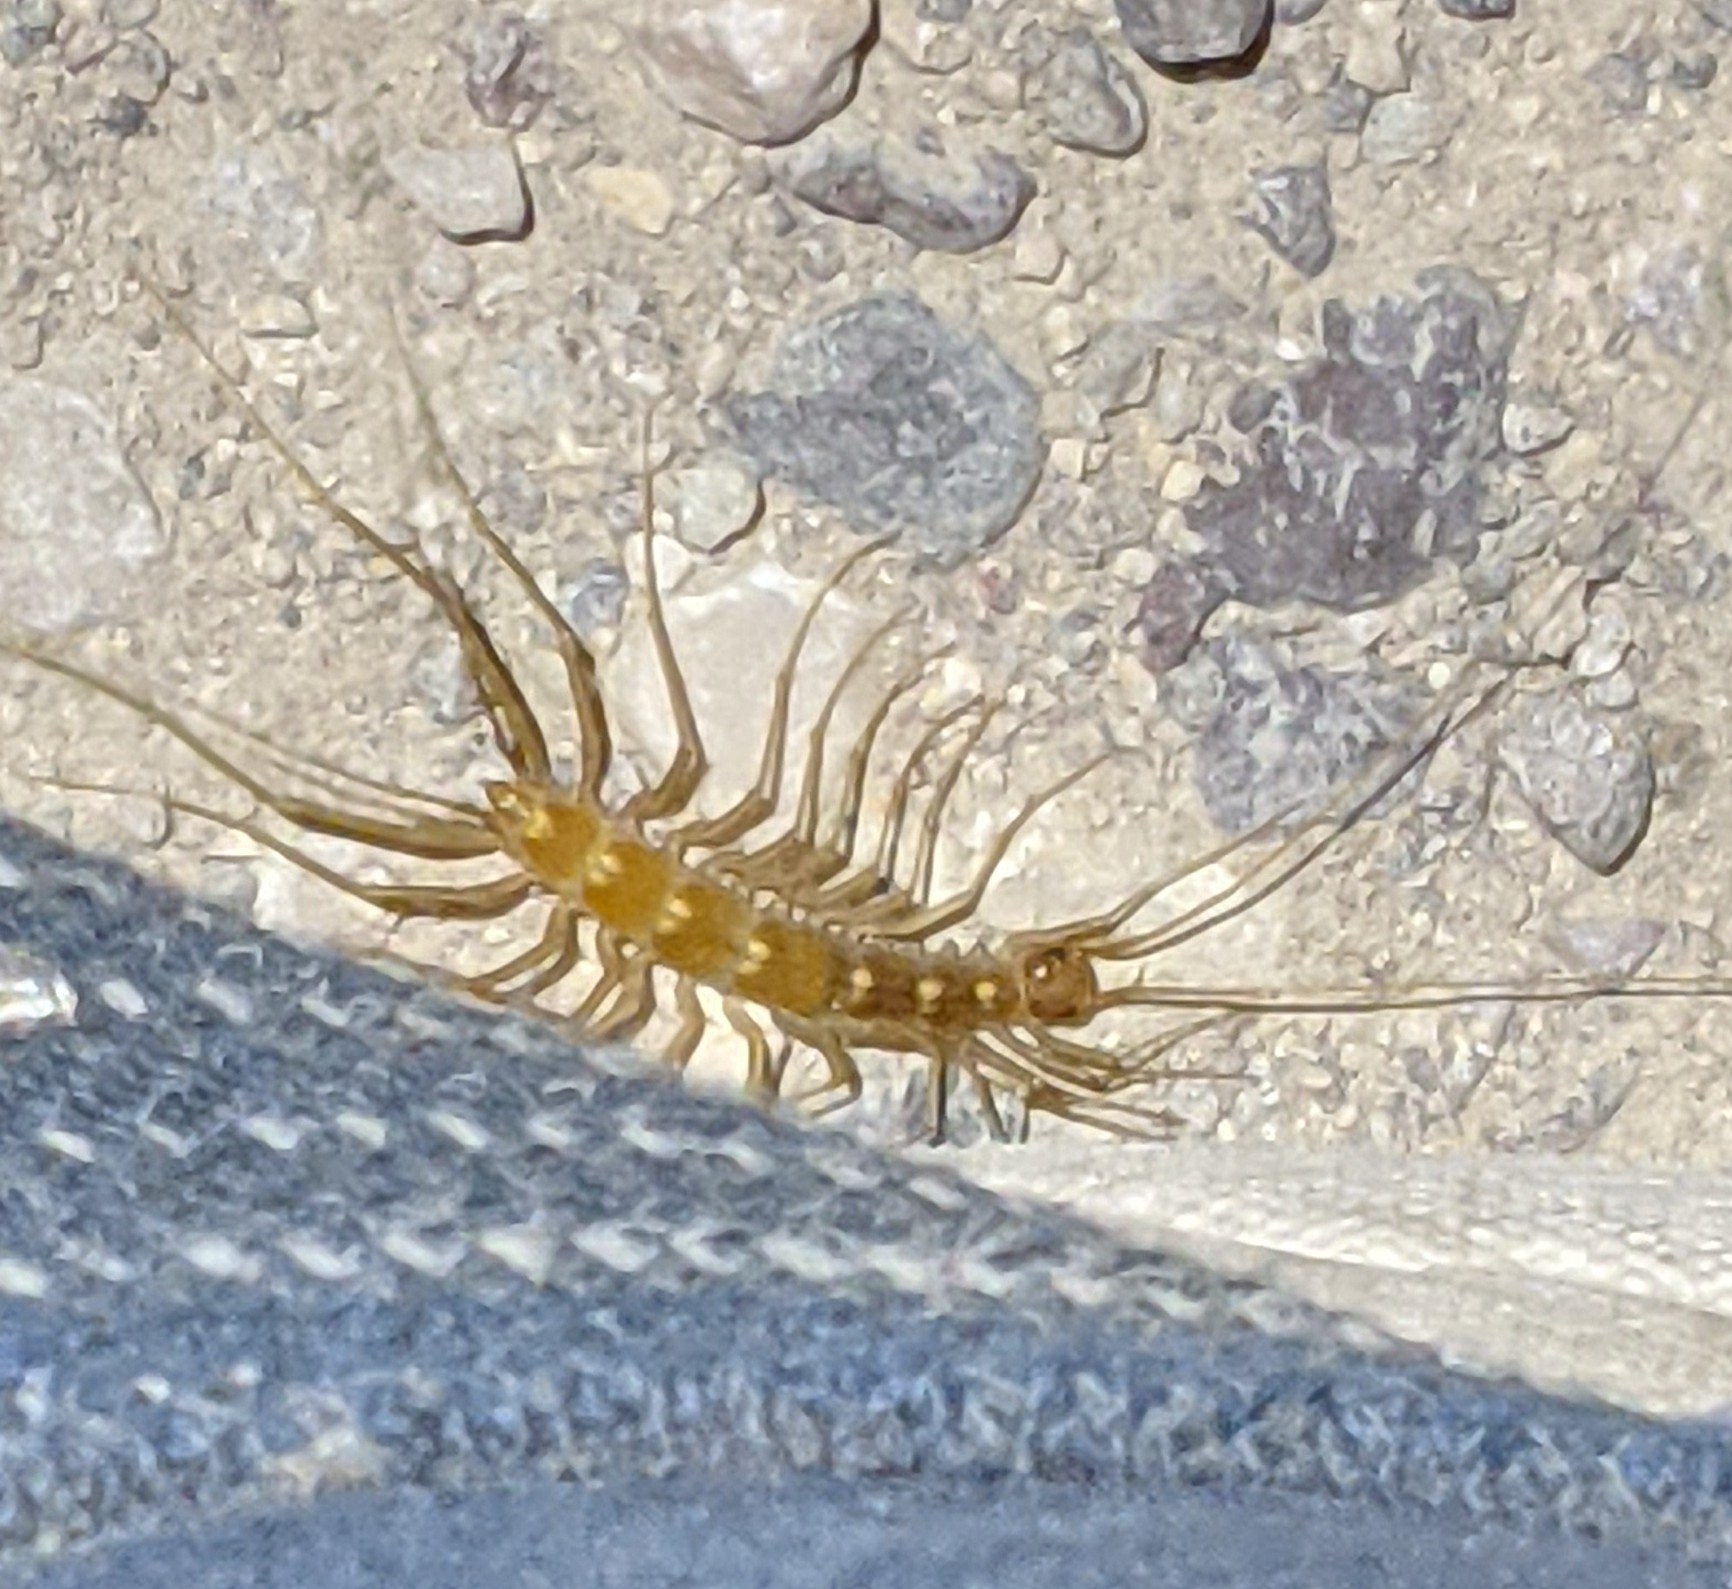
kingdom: Animalia
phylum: Arthropoda
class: Chilopoda
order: Scutigeromorpha
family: Scutigeridae
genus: Scutigera
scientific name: Scutigera linceci
